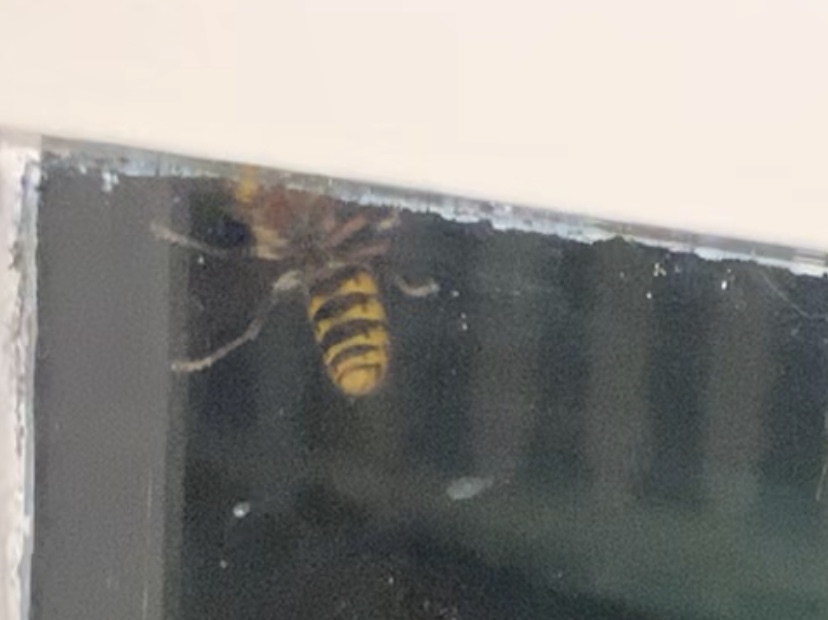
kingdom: Animalia
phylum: Arthropoda
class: Insecta
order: Hymenoptera
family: Vespidae
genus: Vespa
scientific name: Vespa crabro
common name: Hornet
